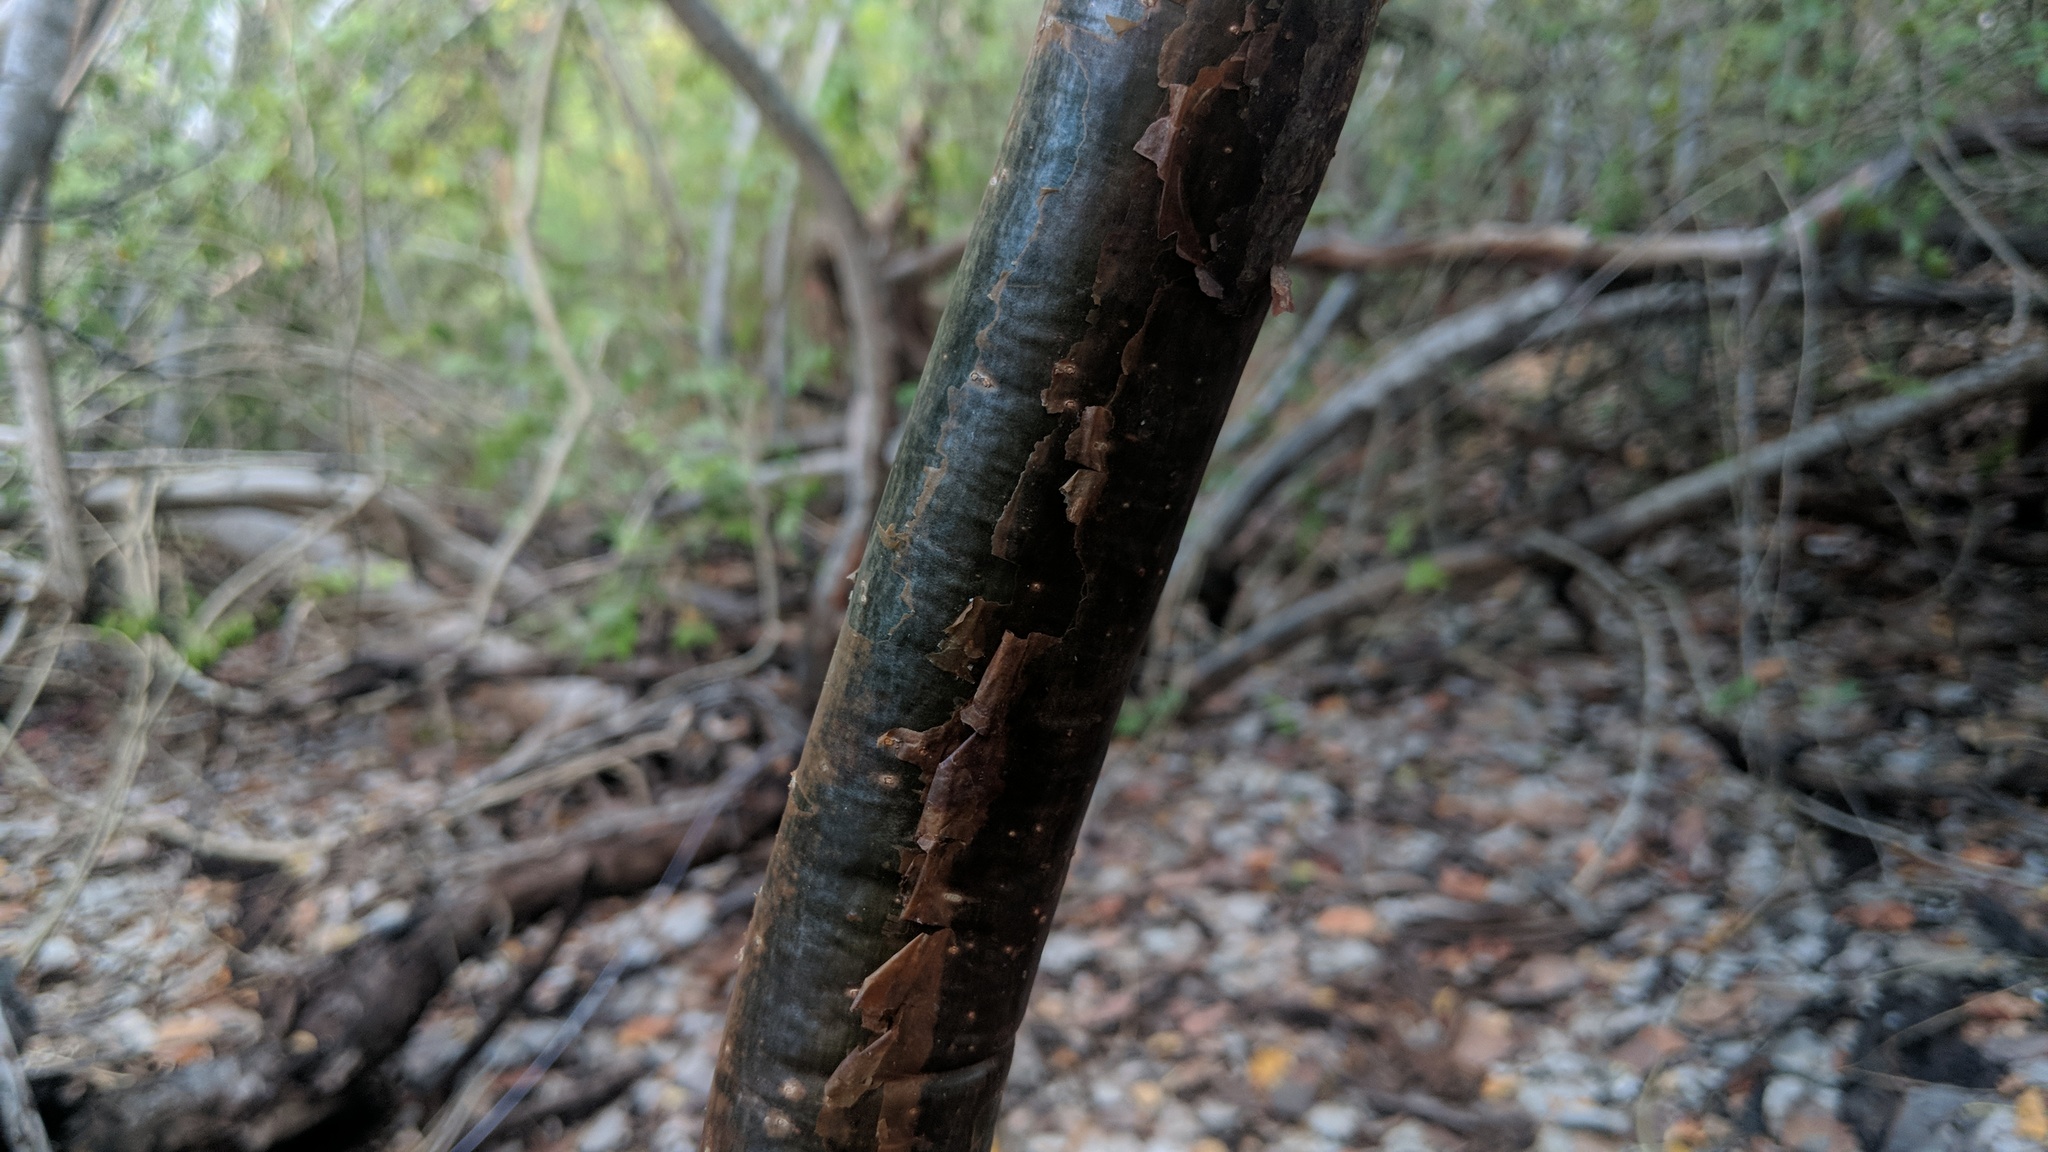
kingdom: Plantae
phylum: Tracheophyta
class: Magnoliopsida
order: Sapindales
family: Burseraceae
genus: Bursera
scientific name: Bursera simaruba
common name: Turpentine tree
